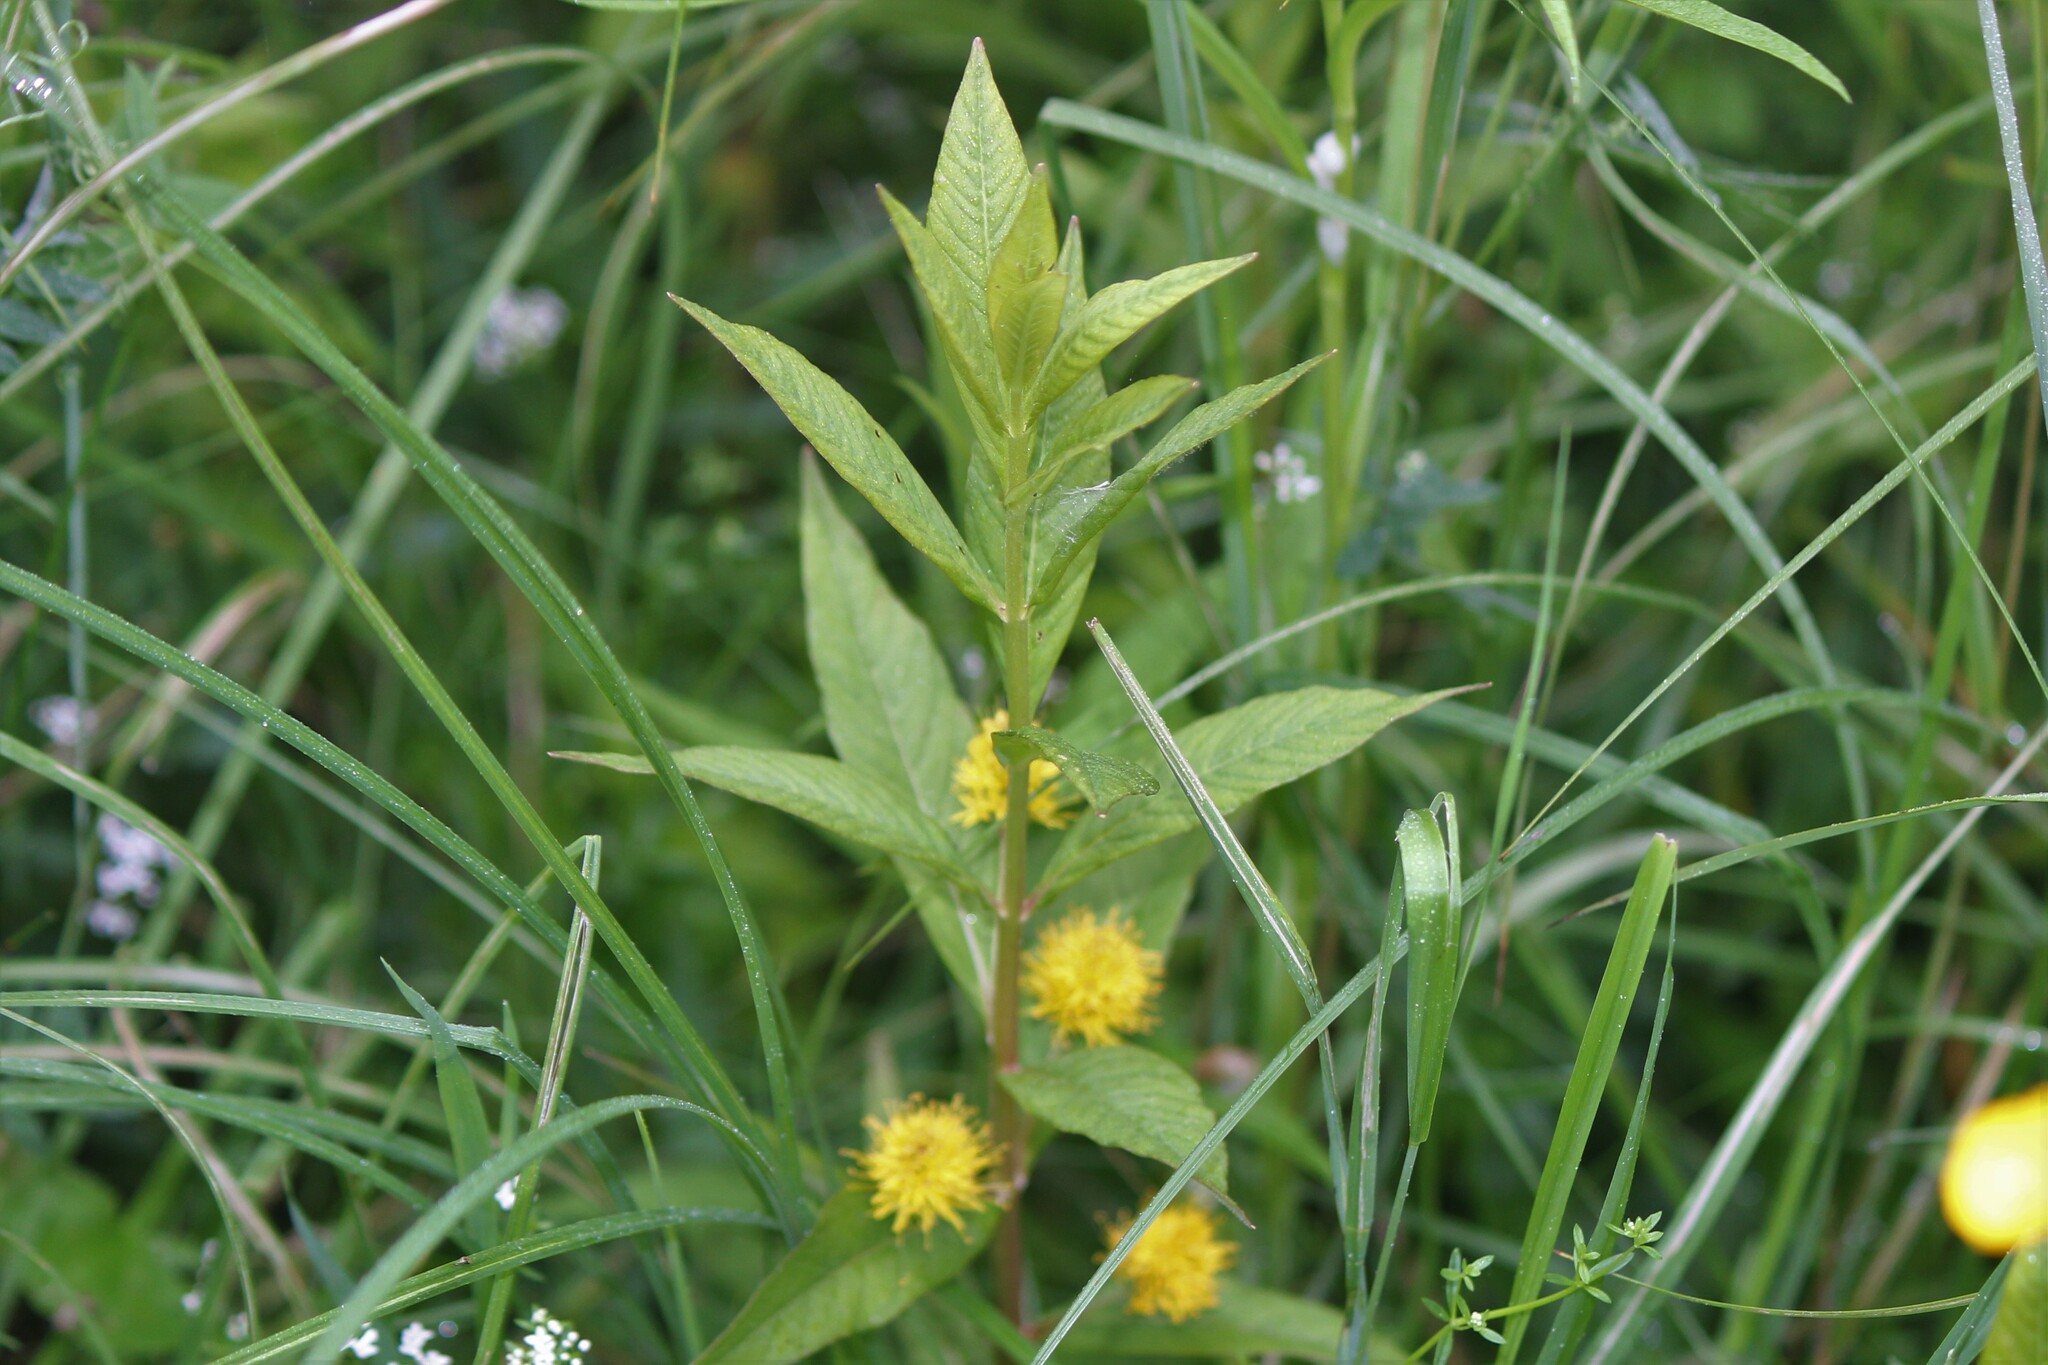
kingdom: Plantae
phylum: Tracheophyta
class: Magnoliopsida
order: Ericales
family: Primulaceae
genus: Lysimachia
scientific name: Lysimachia thyrsiflora
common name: Tufted loosestrife
